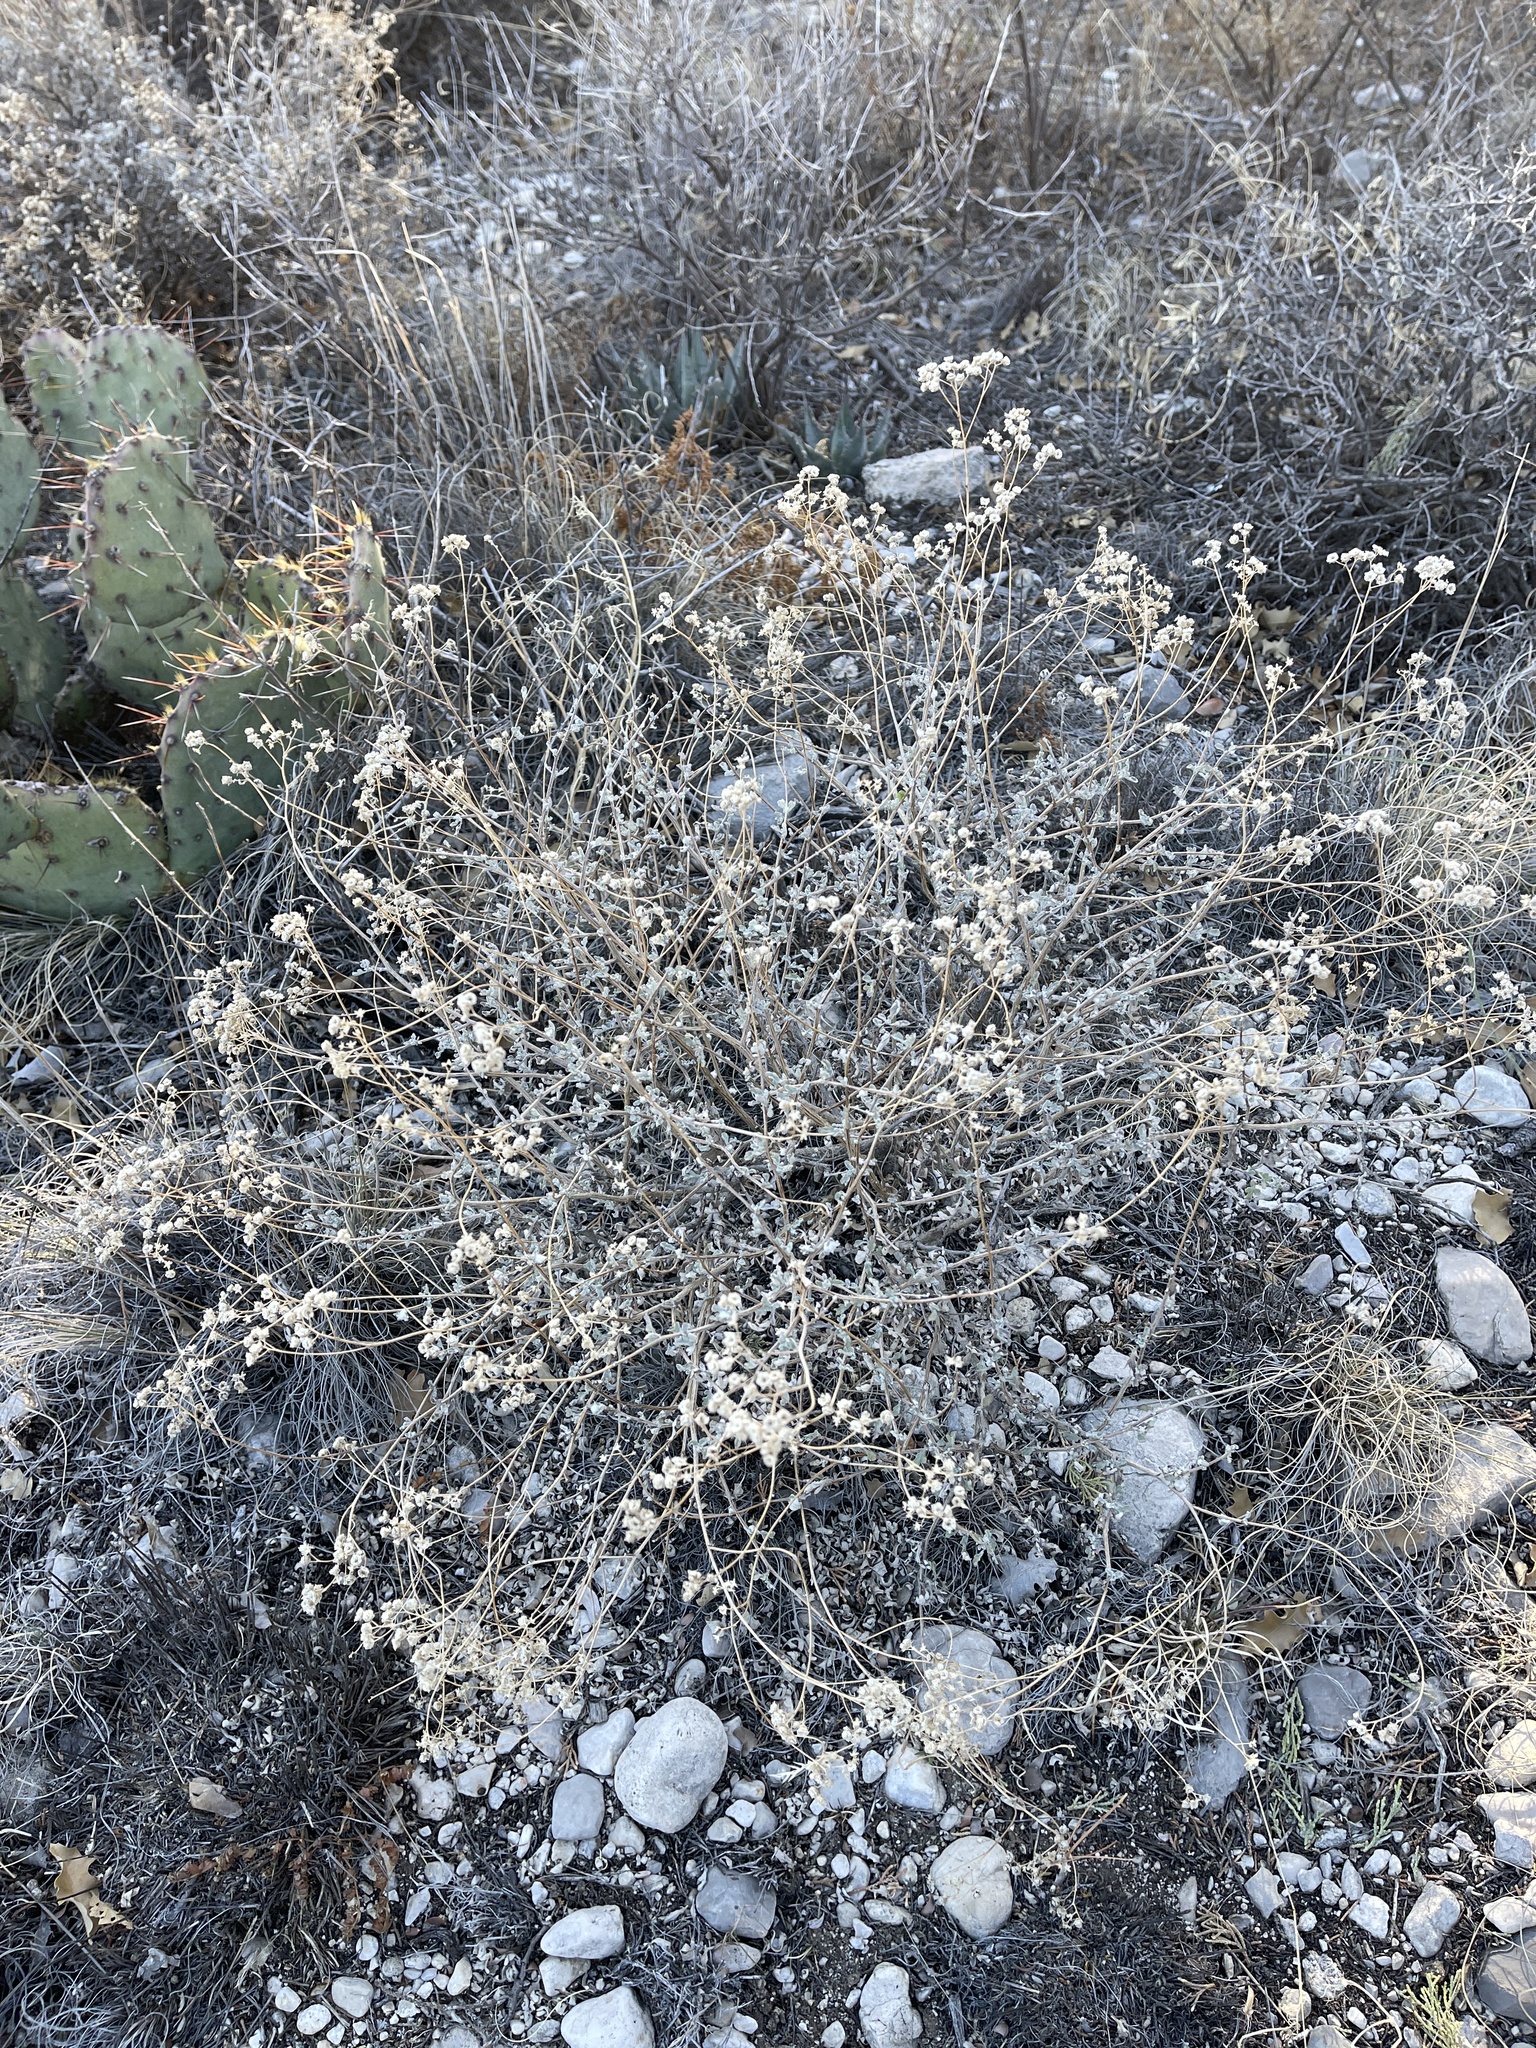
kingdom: Plantae
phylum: Tracheophyta
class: Magnoliopsida
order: Asterales
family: Asteraceae
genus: Parthenium
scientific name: Parthenium incanum
